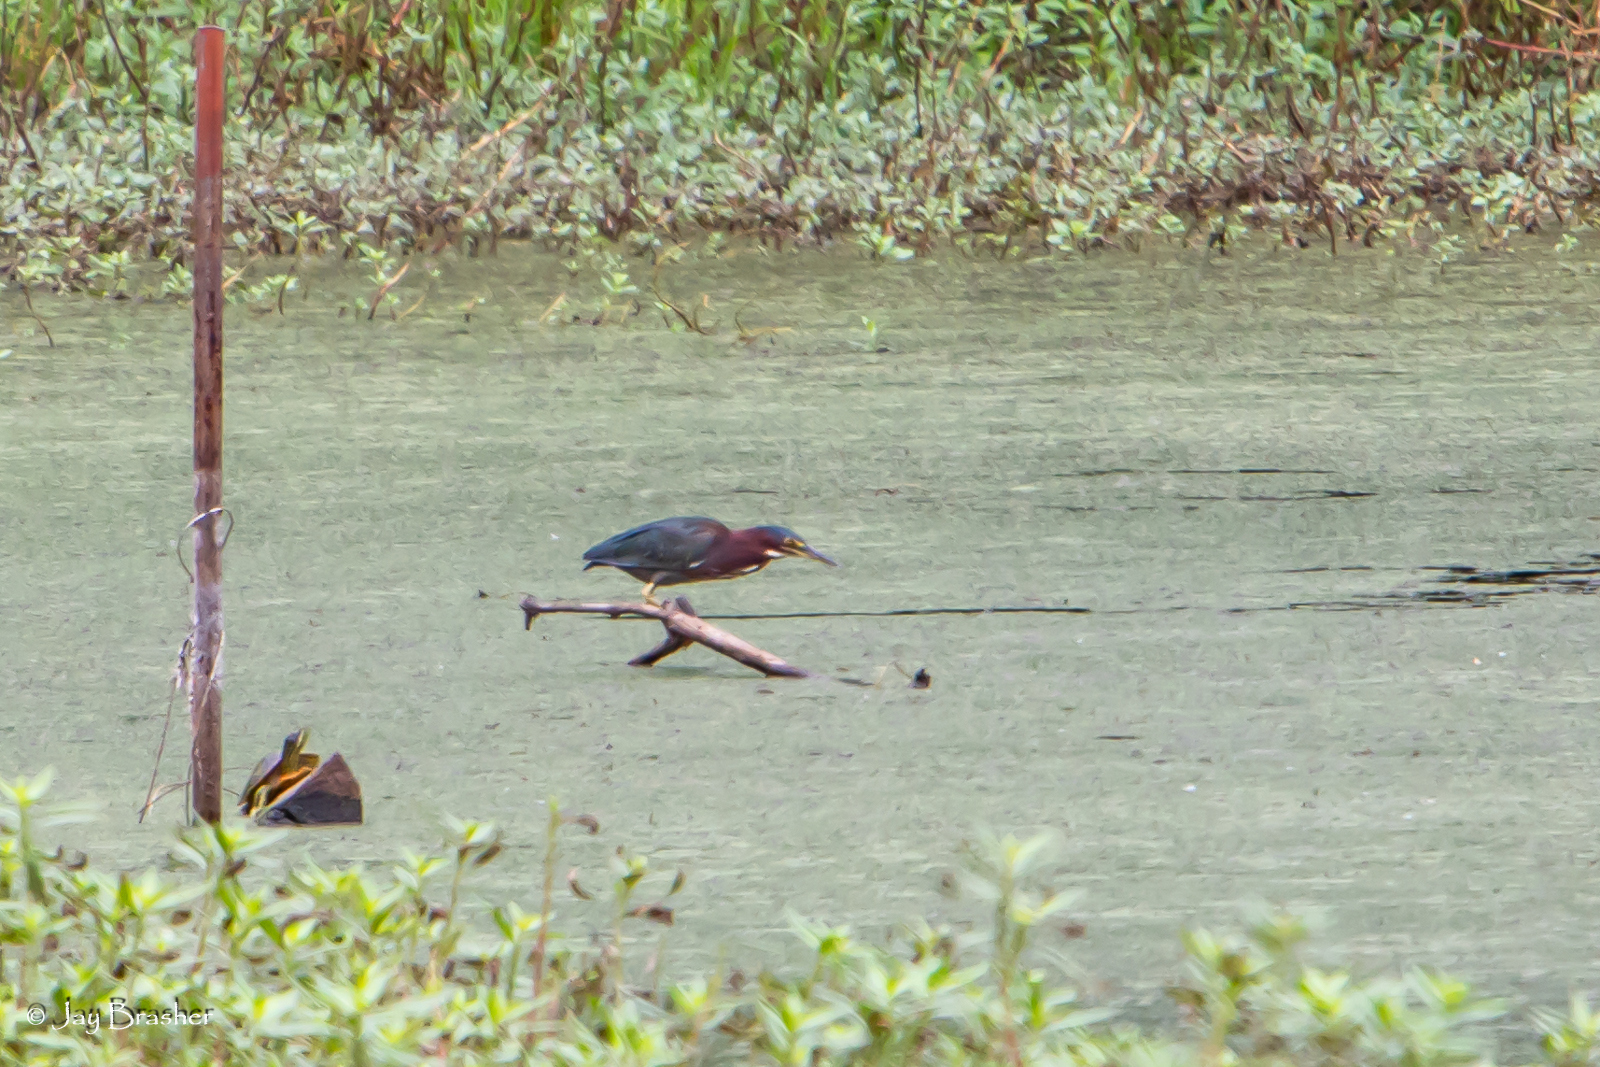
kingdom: Animalia
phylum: Chordata
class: Aves
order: Pelecaniformes
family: Ardeidae
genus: Butorides
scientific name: Butorides virescens
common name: Green heron
